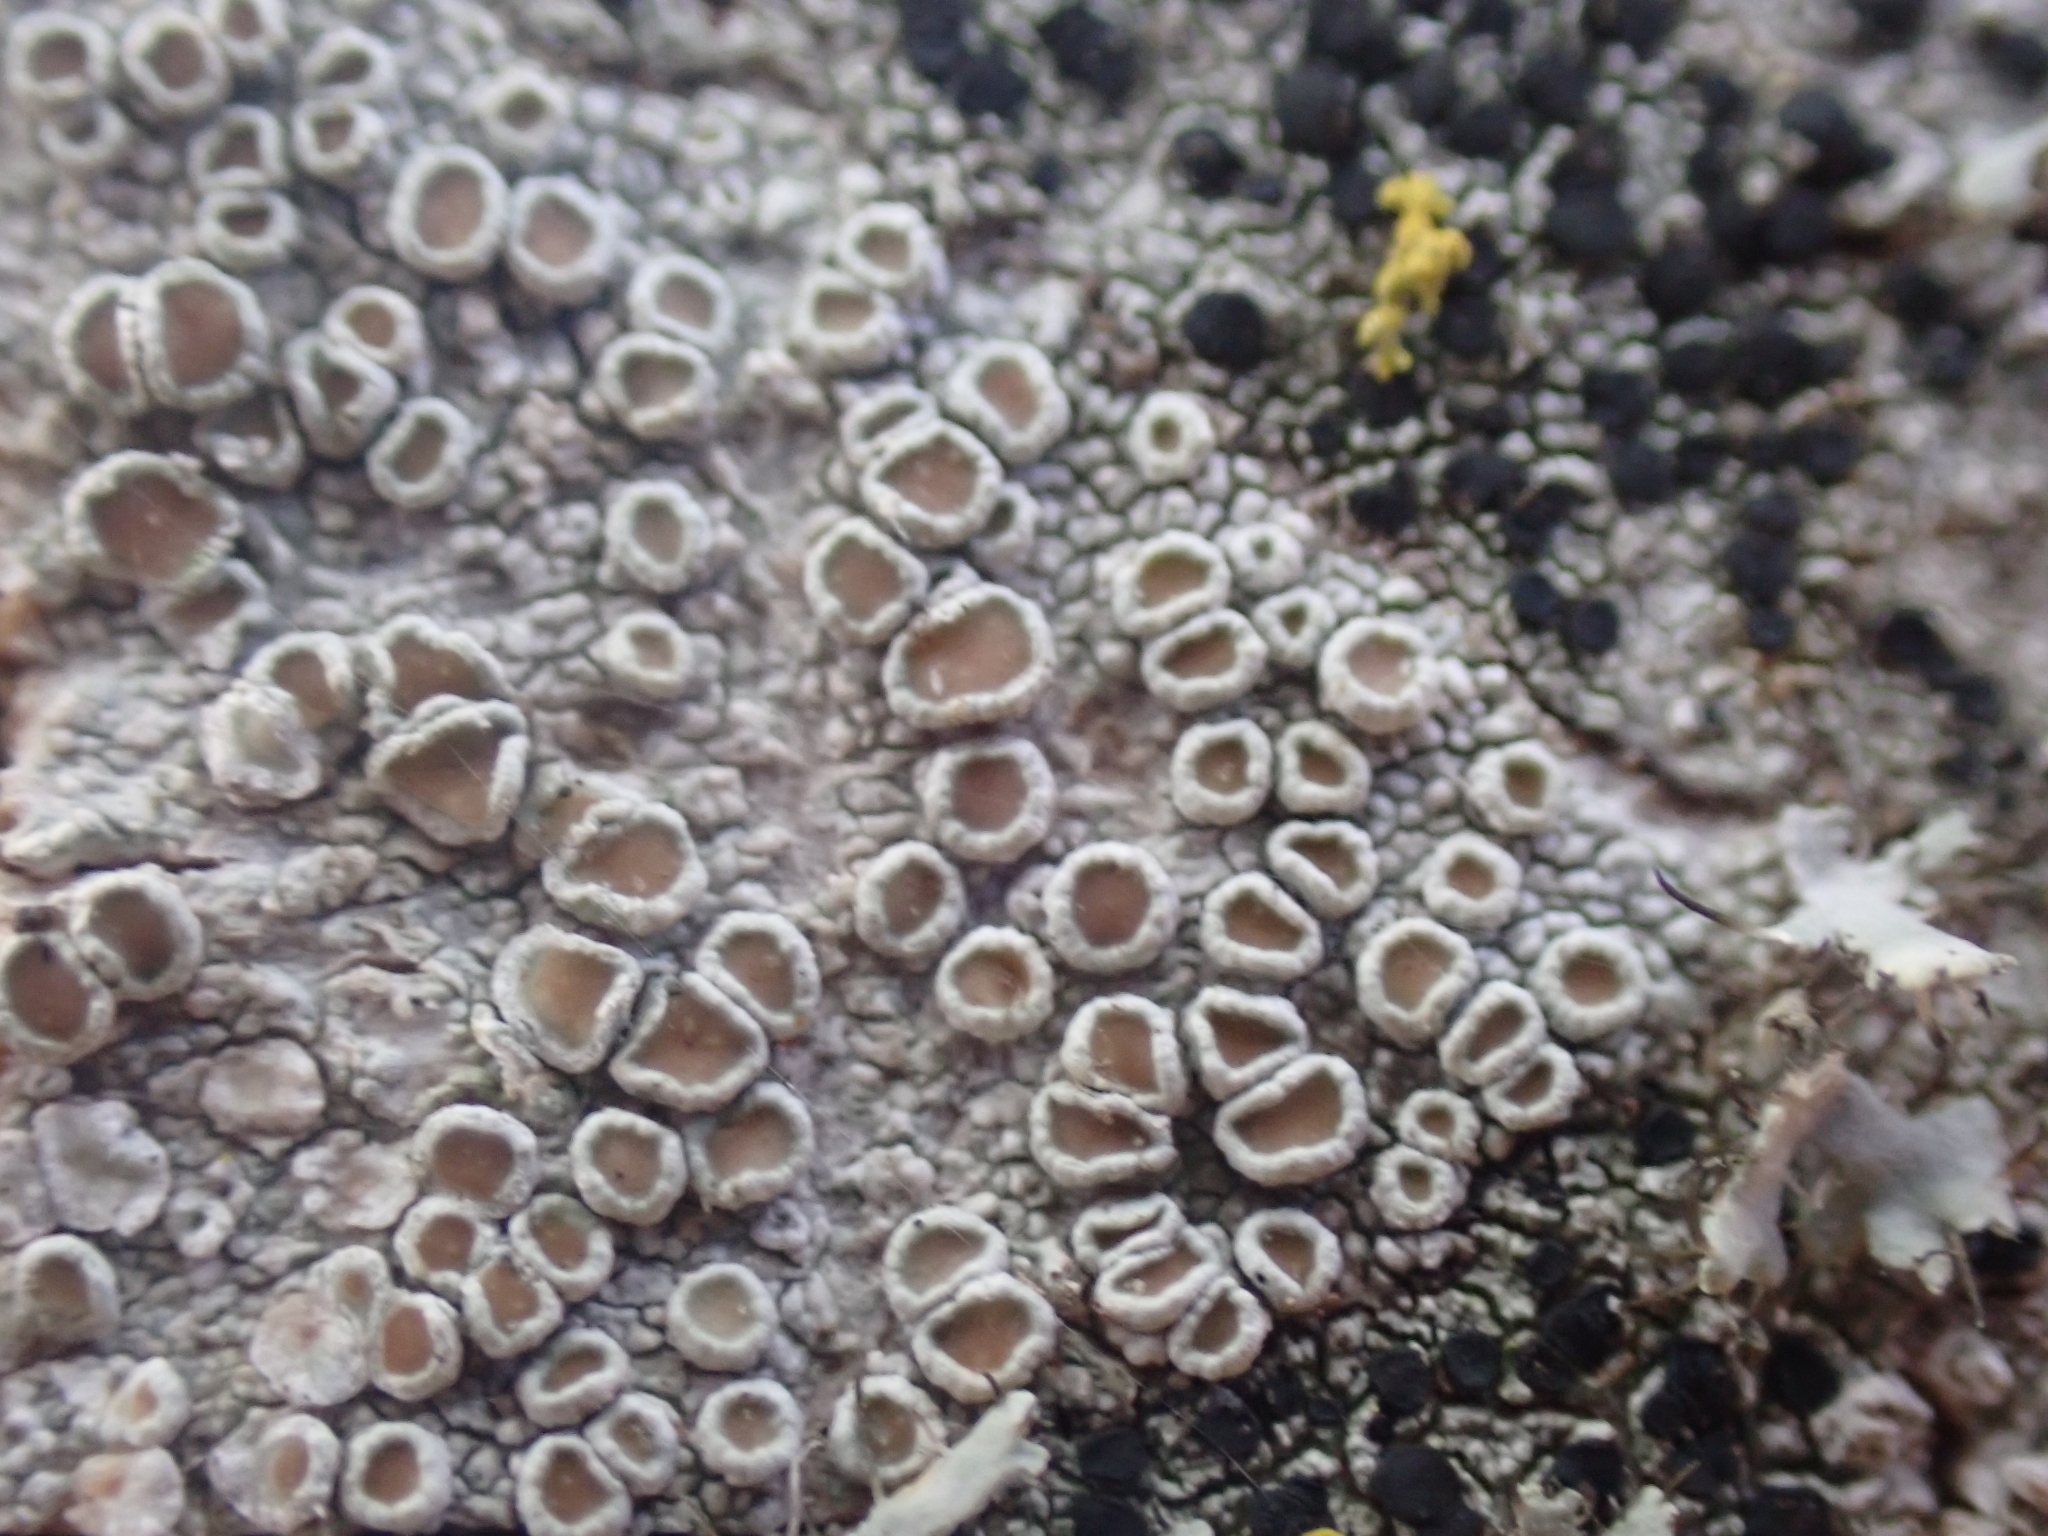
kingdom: Fungi
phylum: Ascomycota
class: Lecanoromycetes
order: Lecanorales
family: Lecanoraceae
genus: Lecanora
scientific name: Lecanora
